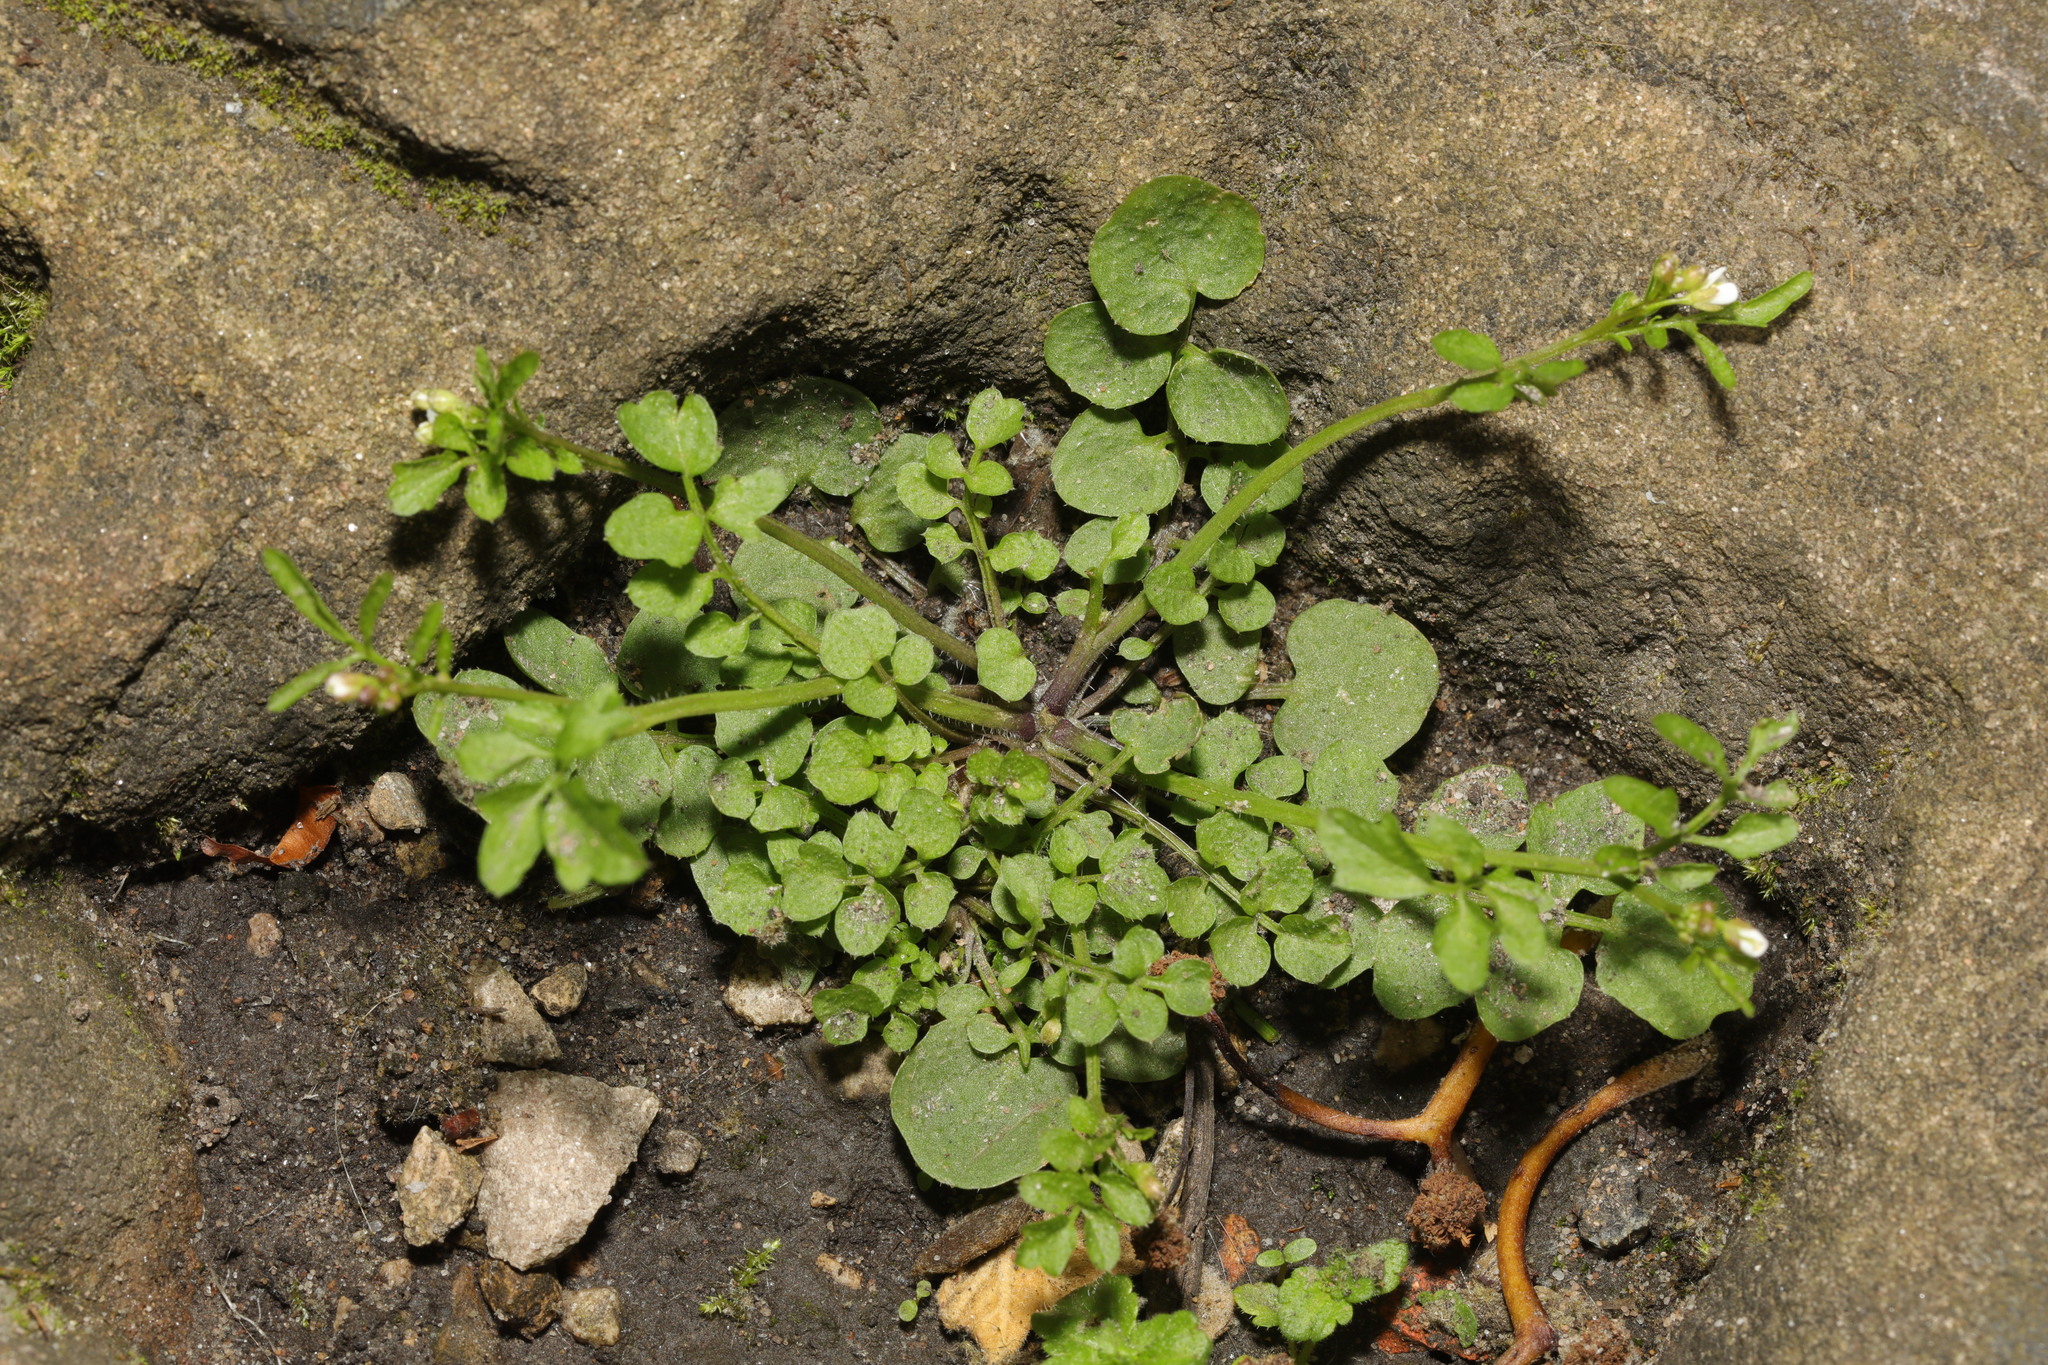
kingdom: Plantae
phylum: Tracheophyta
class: Magnoliopsida
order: Brassicales
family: Brassicaceae
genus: Cardamine
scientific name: Cardamine hirsuta
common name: Hairy bittercress
